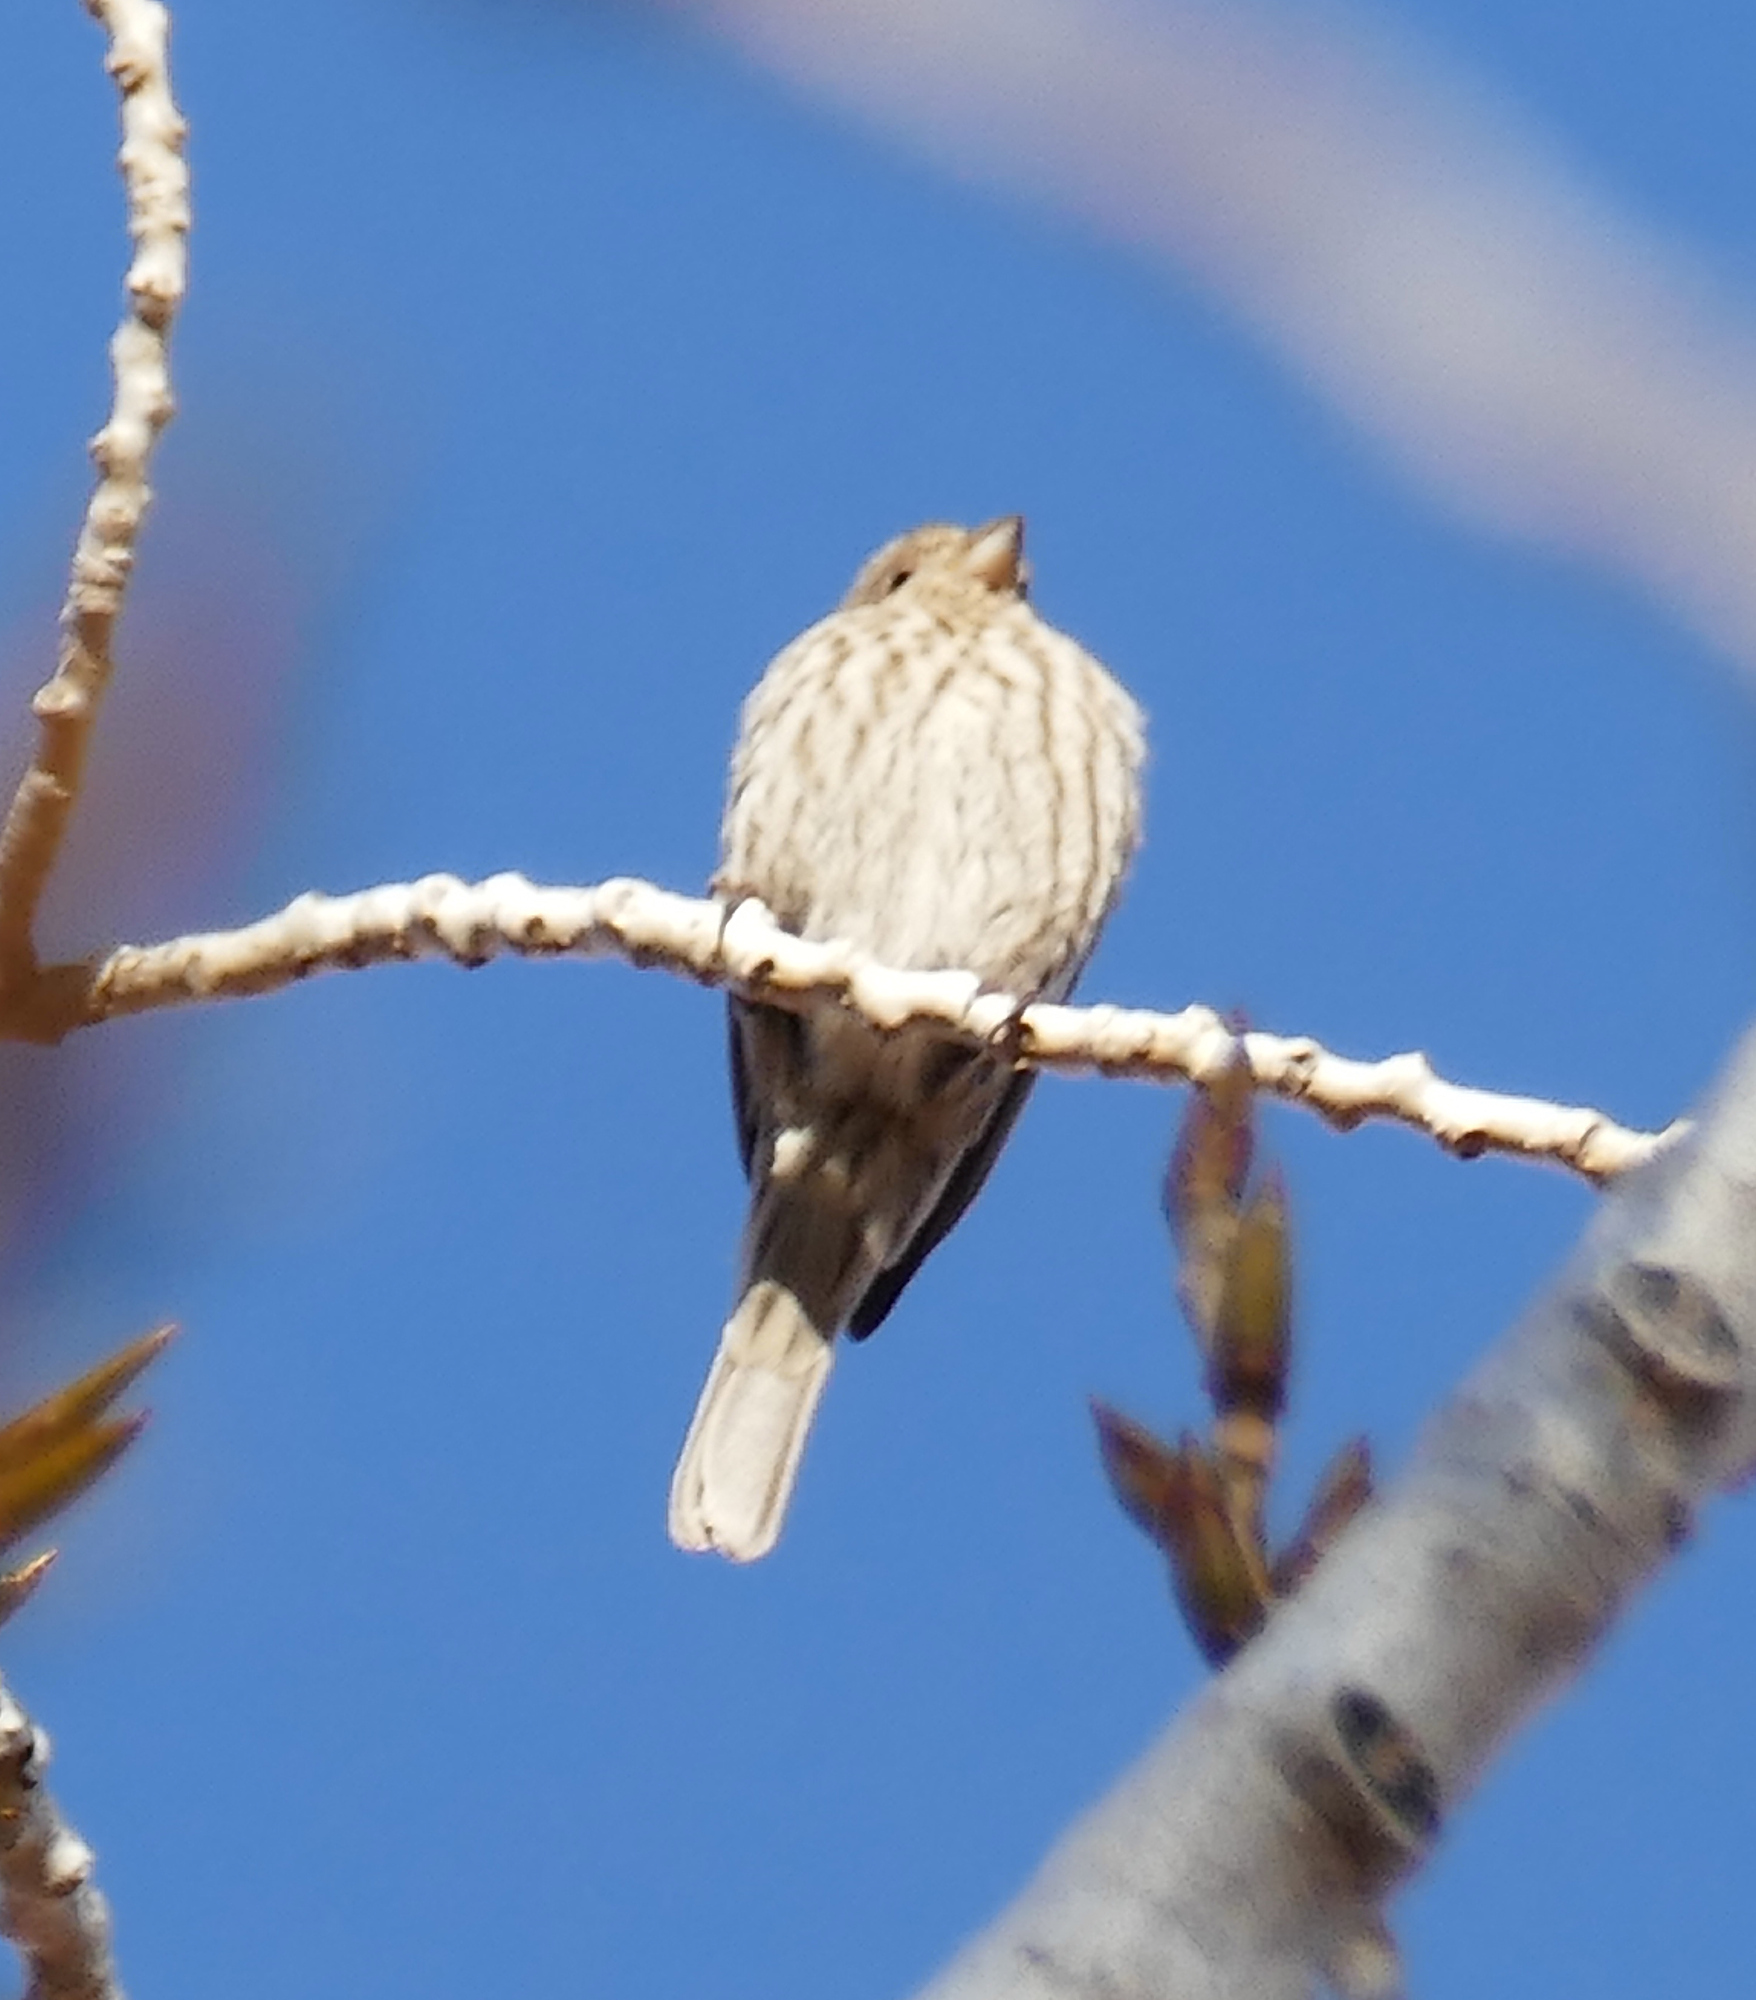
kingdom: Animalia
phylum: Chordata
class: Aves
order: Passeriformes
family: Fringillidae
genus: Haemorhous
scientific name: Haemorhous mexicanus
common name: House finch
